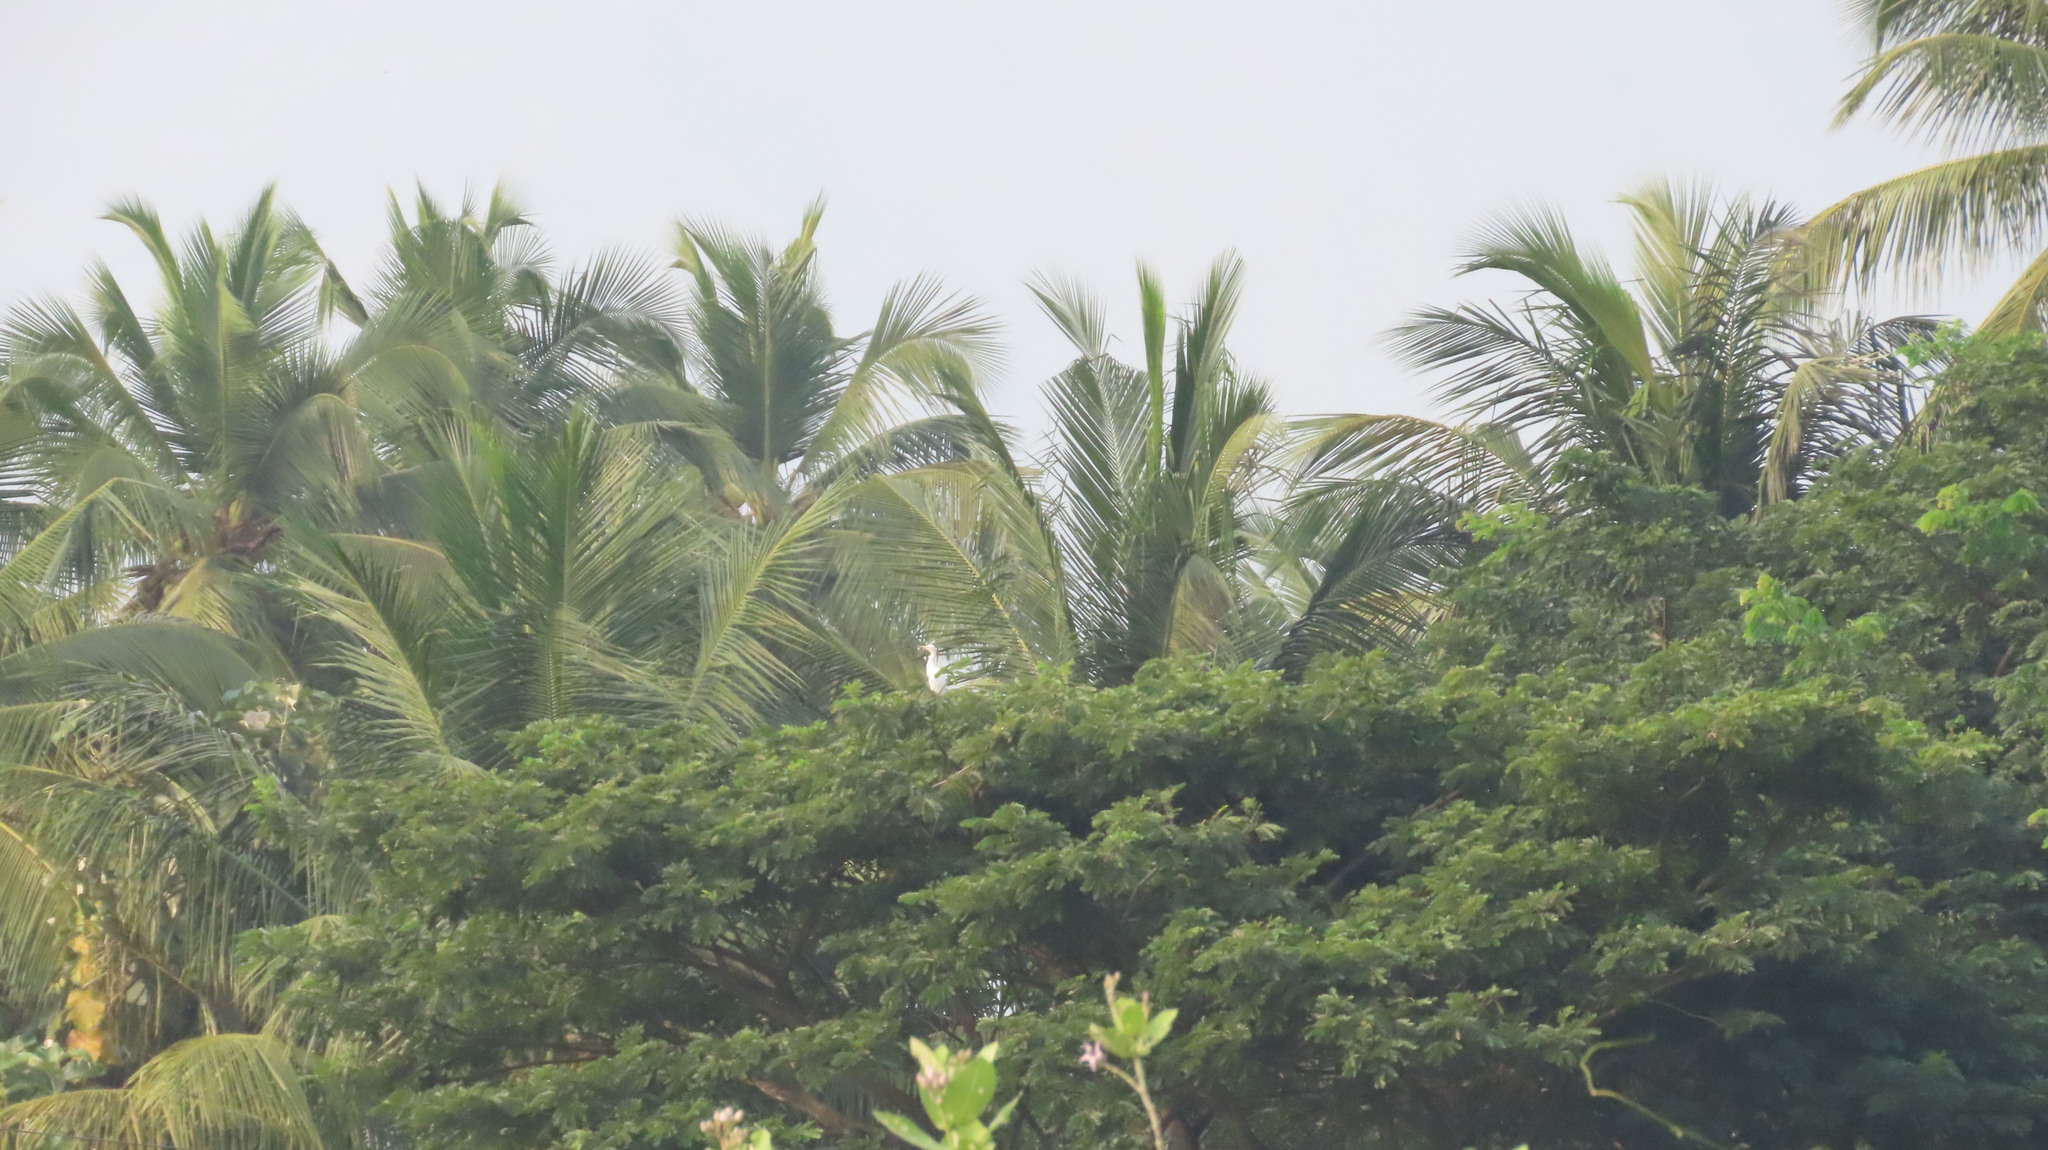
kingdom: Animalia
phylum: Chordata
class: Aves
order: Pelecaniformes
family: Ardeidae
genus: Bubulcus
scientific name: Bubulcus coromandus
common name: Eastern cattle egret
